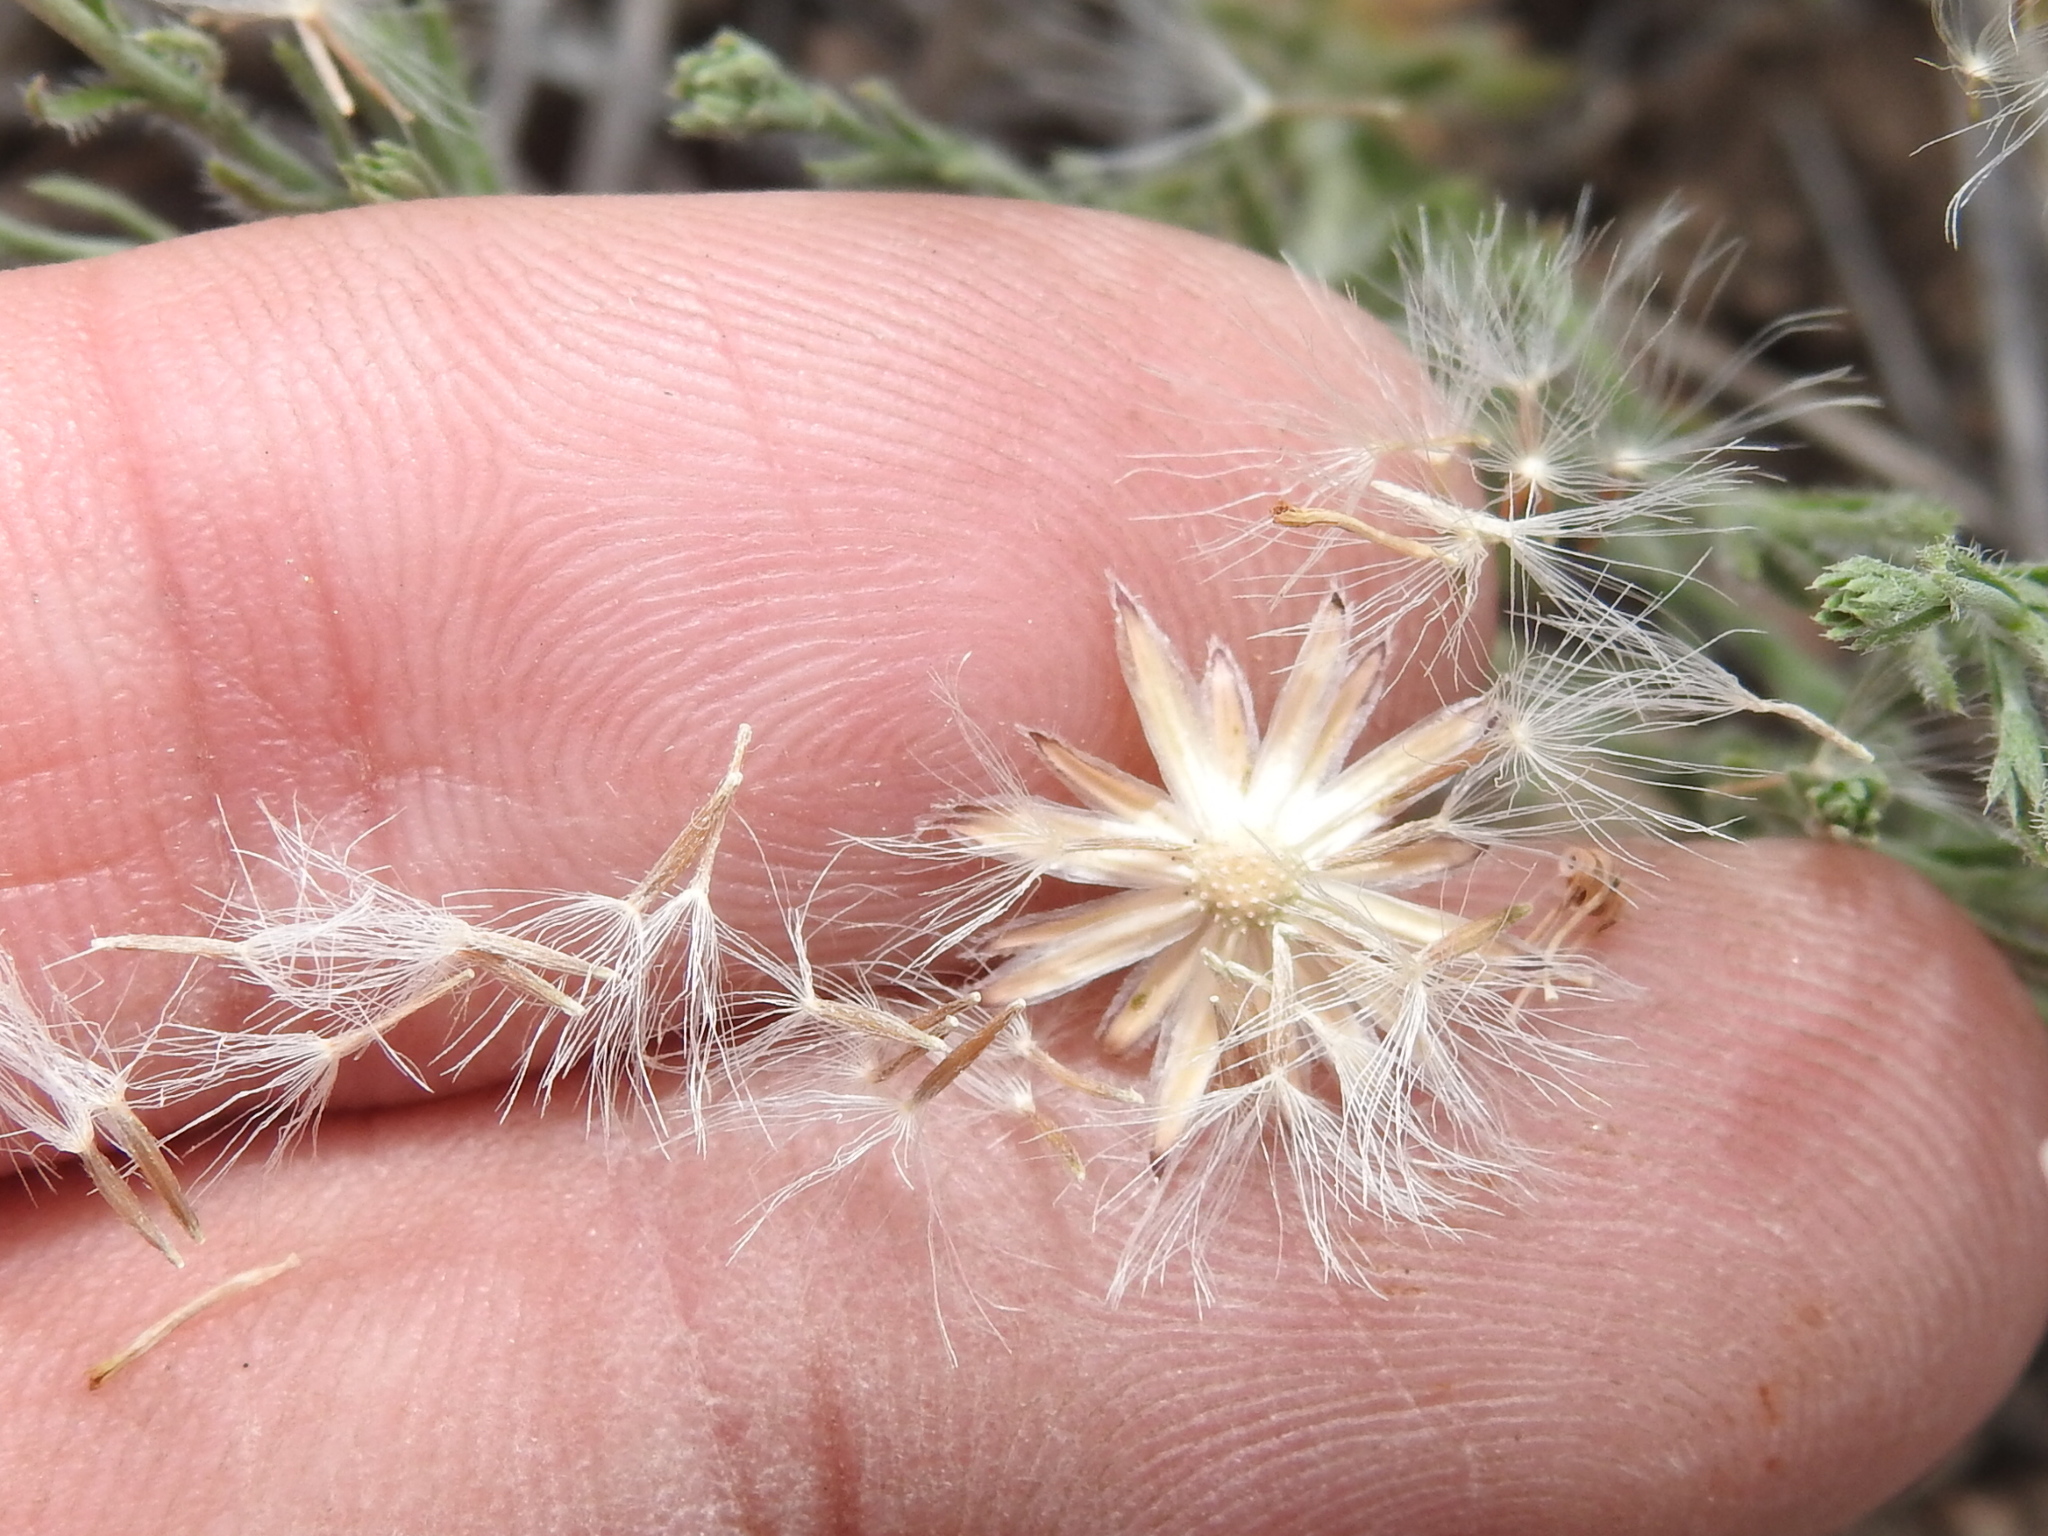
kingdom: Plantae
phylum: Tracheophyta
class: Magnoliopsida
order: Asterales
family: Asteraceae
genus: Chaetopappa
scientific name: Chaetopappa ericoides
